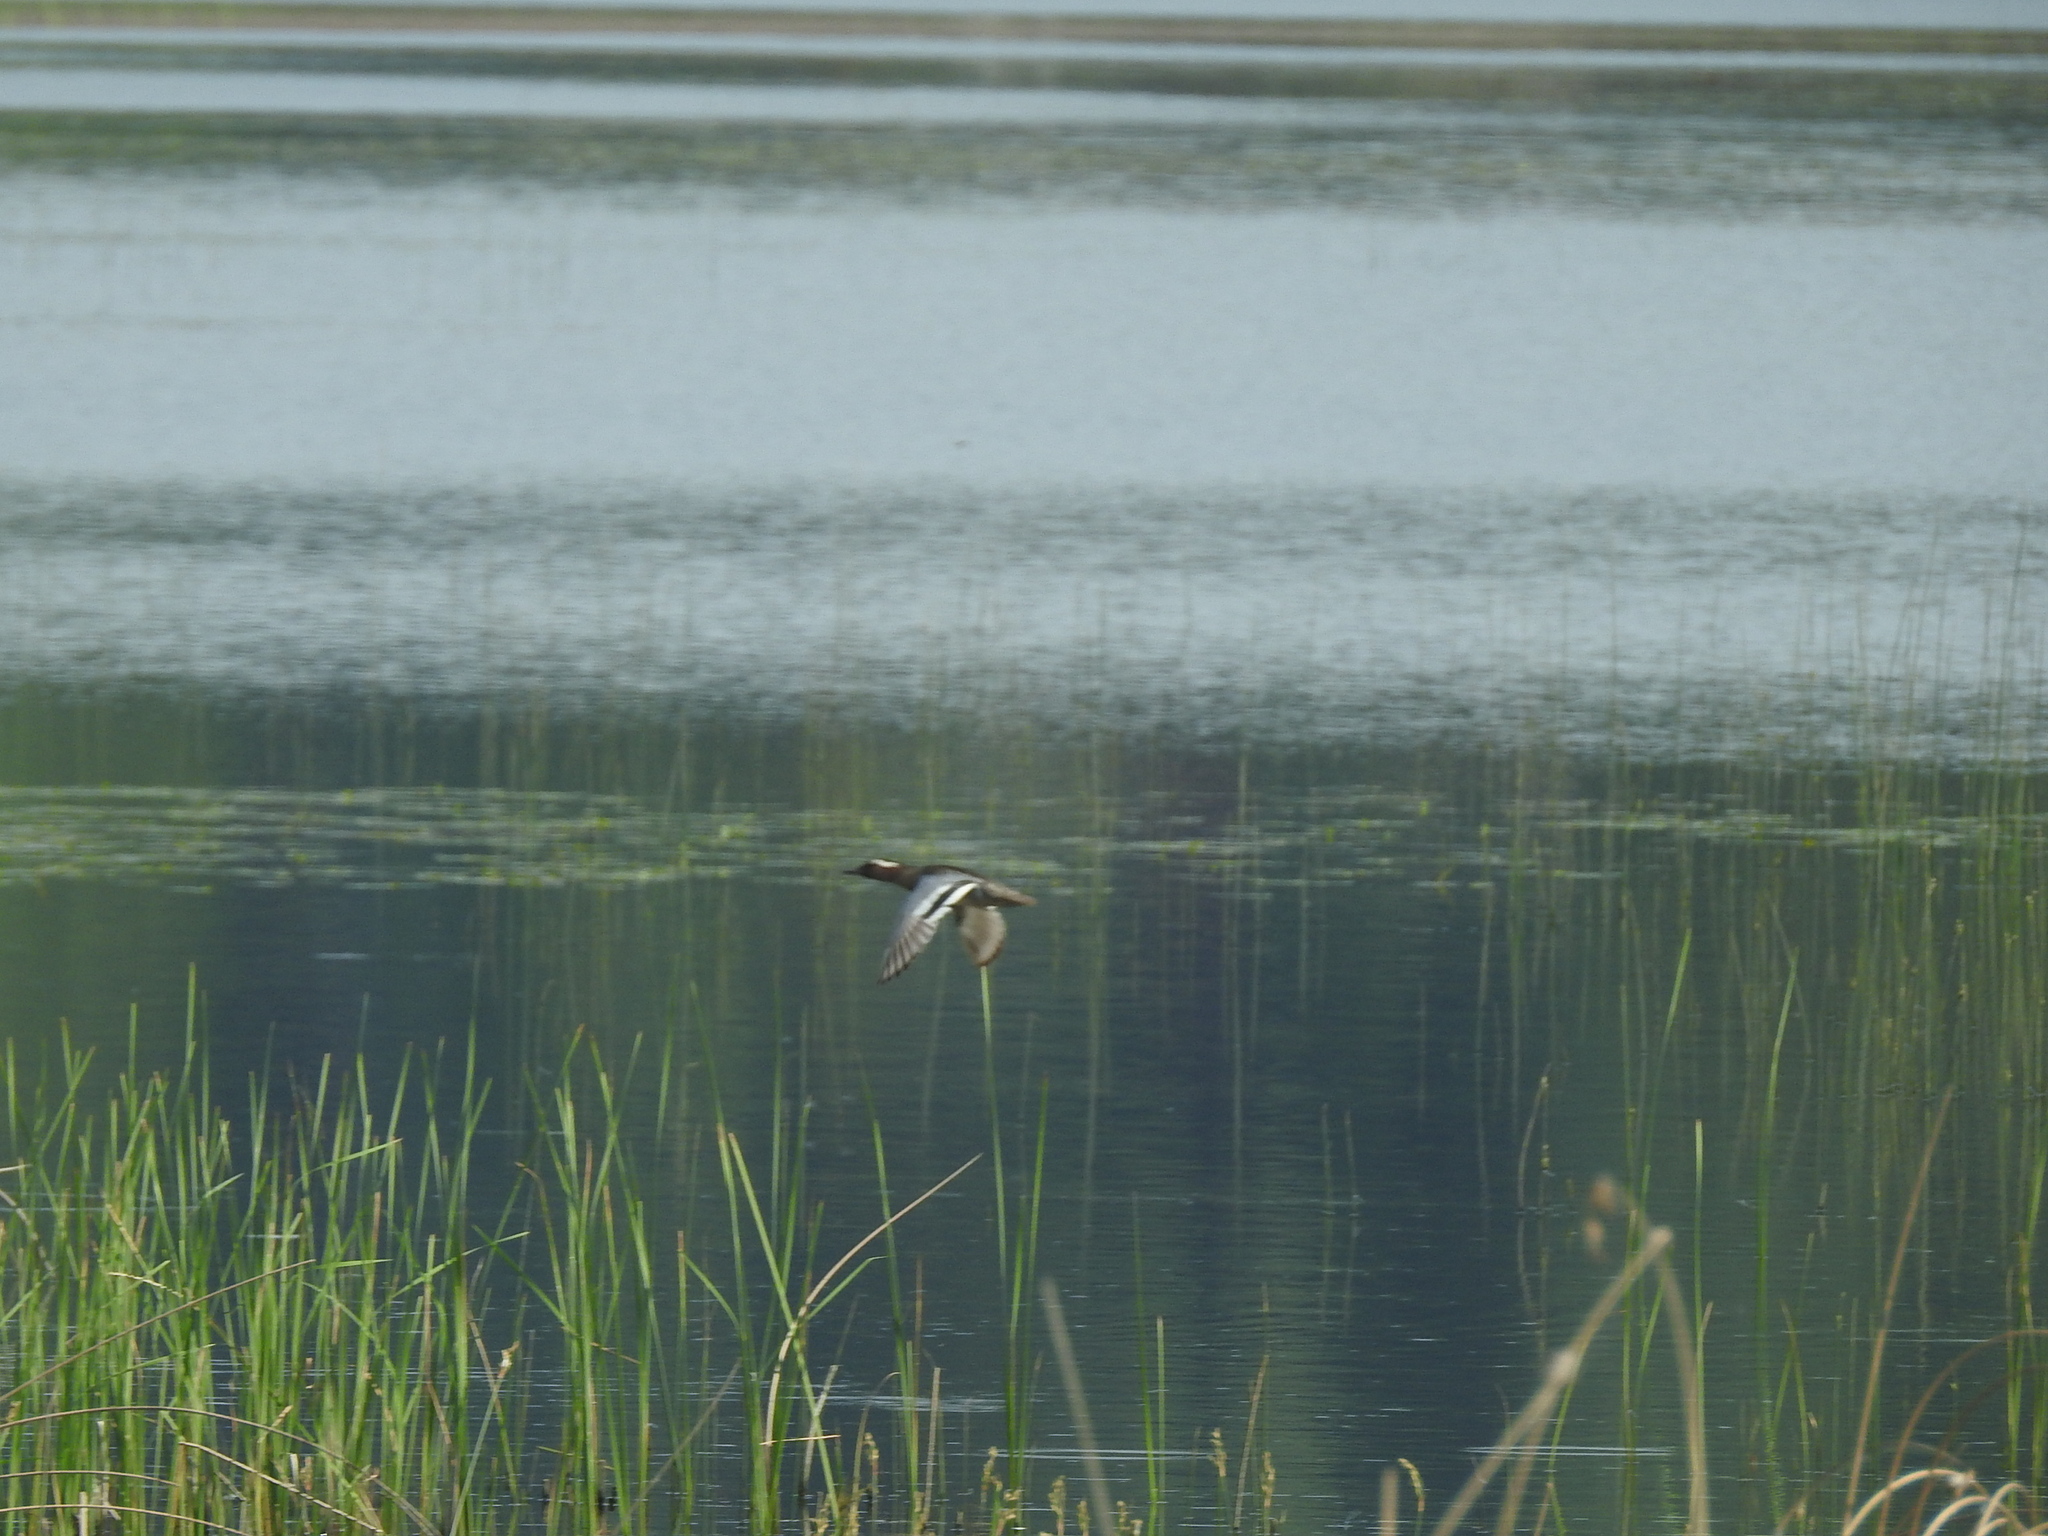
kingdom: Animalia
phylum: Chordata
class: Aves
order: Anseriformes
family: Anatidae
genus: Spatula
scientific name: Spatula querquedula
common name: Garganey
